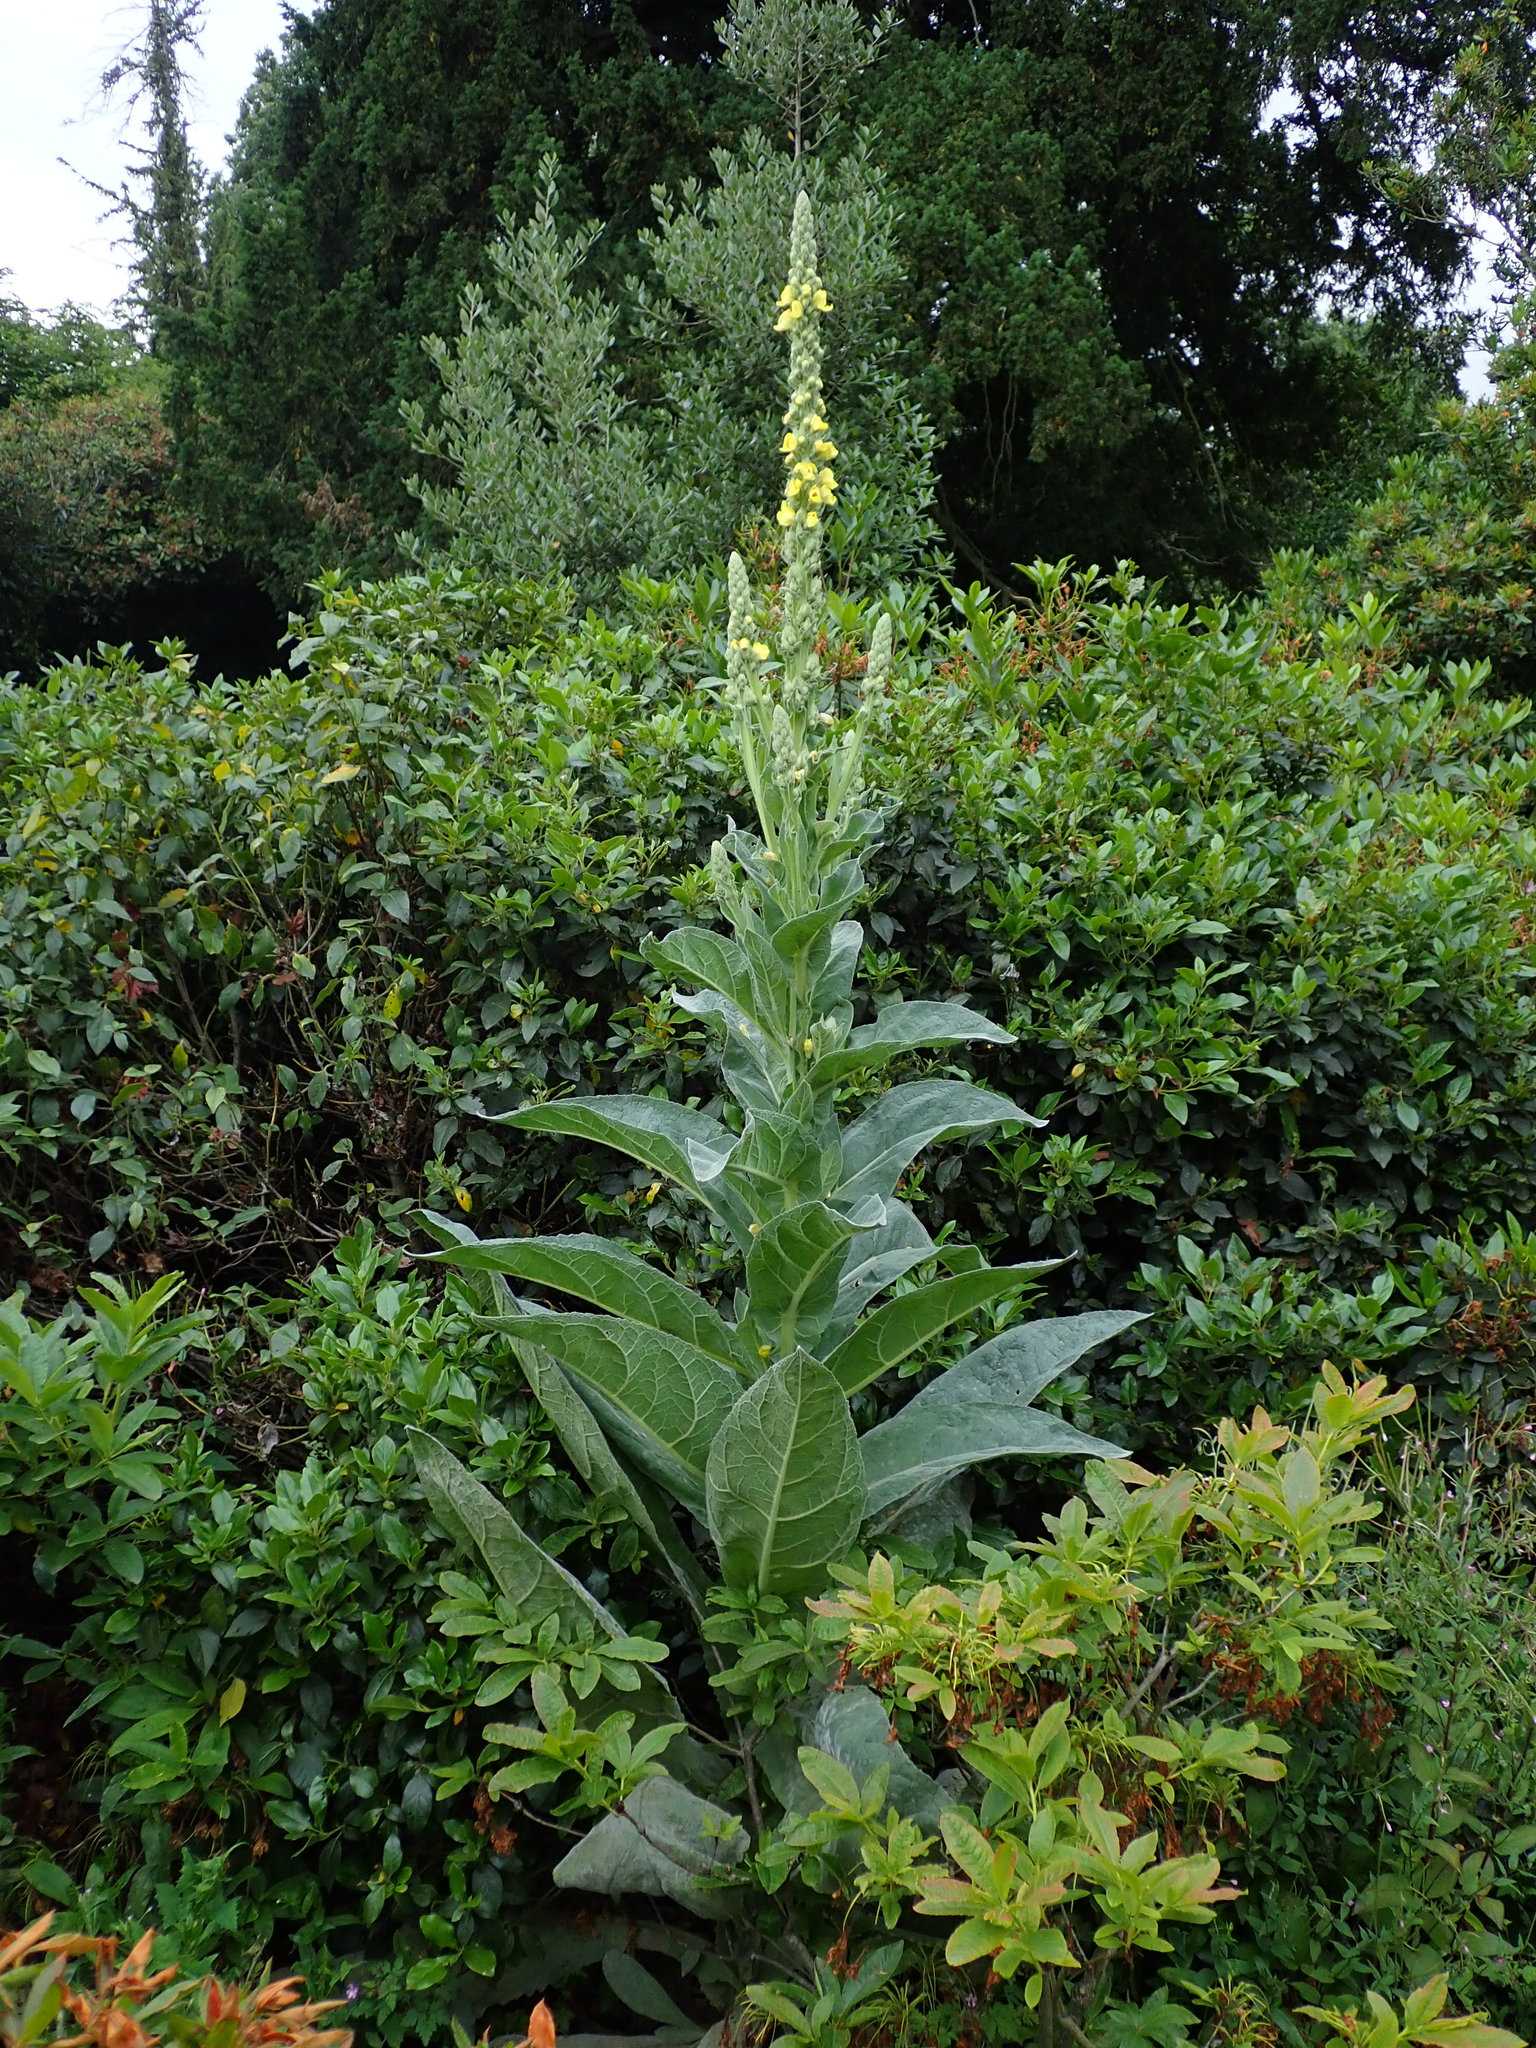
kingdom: Plantae
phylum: Tracheophyta
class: Magnoliopsida
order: Lamiales
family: Scrophulariaceae
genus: Verbascum
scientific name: Verbascum thapsus
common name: Common mullein
